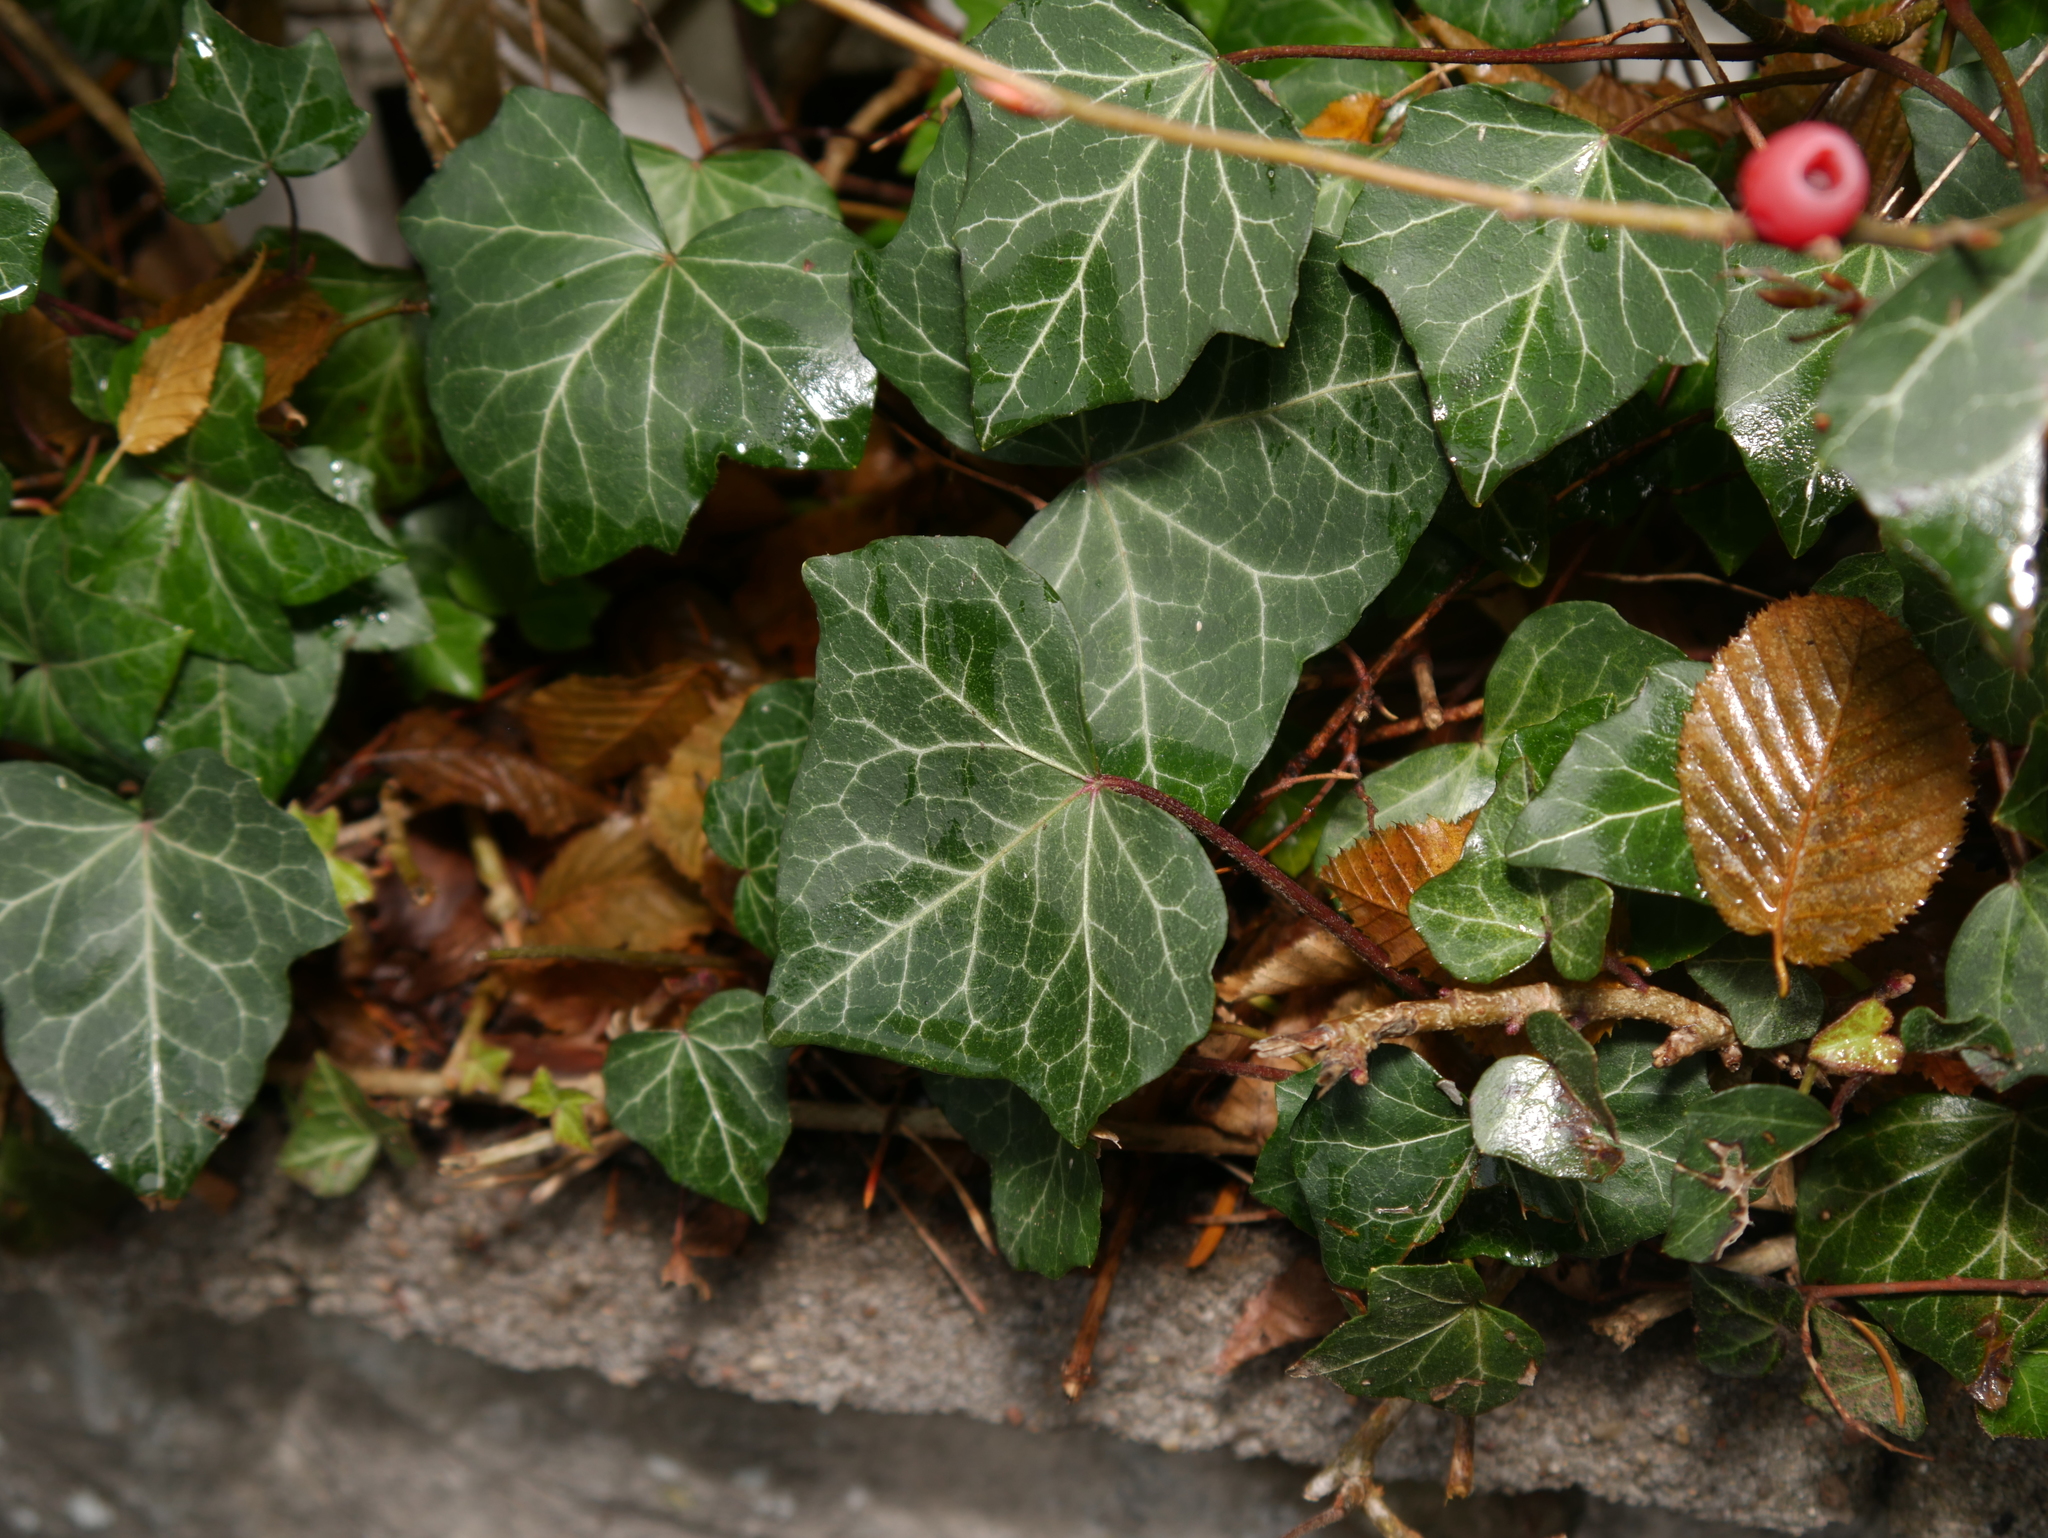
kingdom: Plantae
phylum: Tracheophyta
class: Magnoliopsida
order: Apiales
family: Araliaceae
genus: Hedera
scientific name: Hedera helix
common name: Ivy
